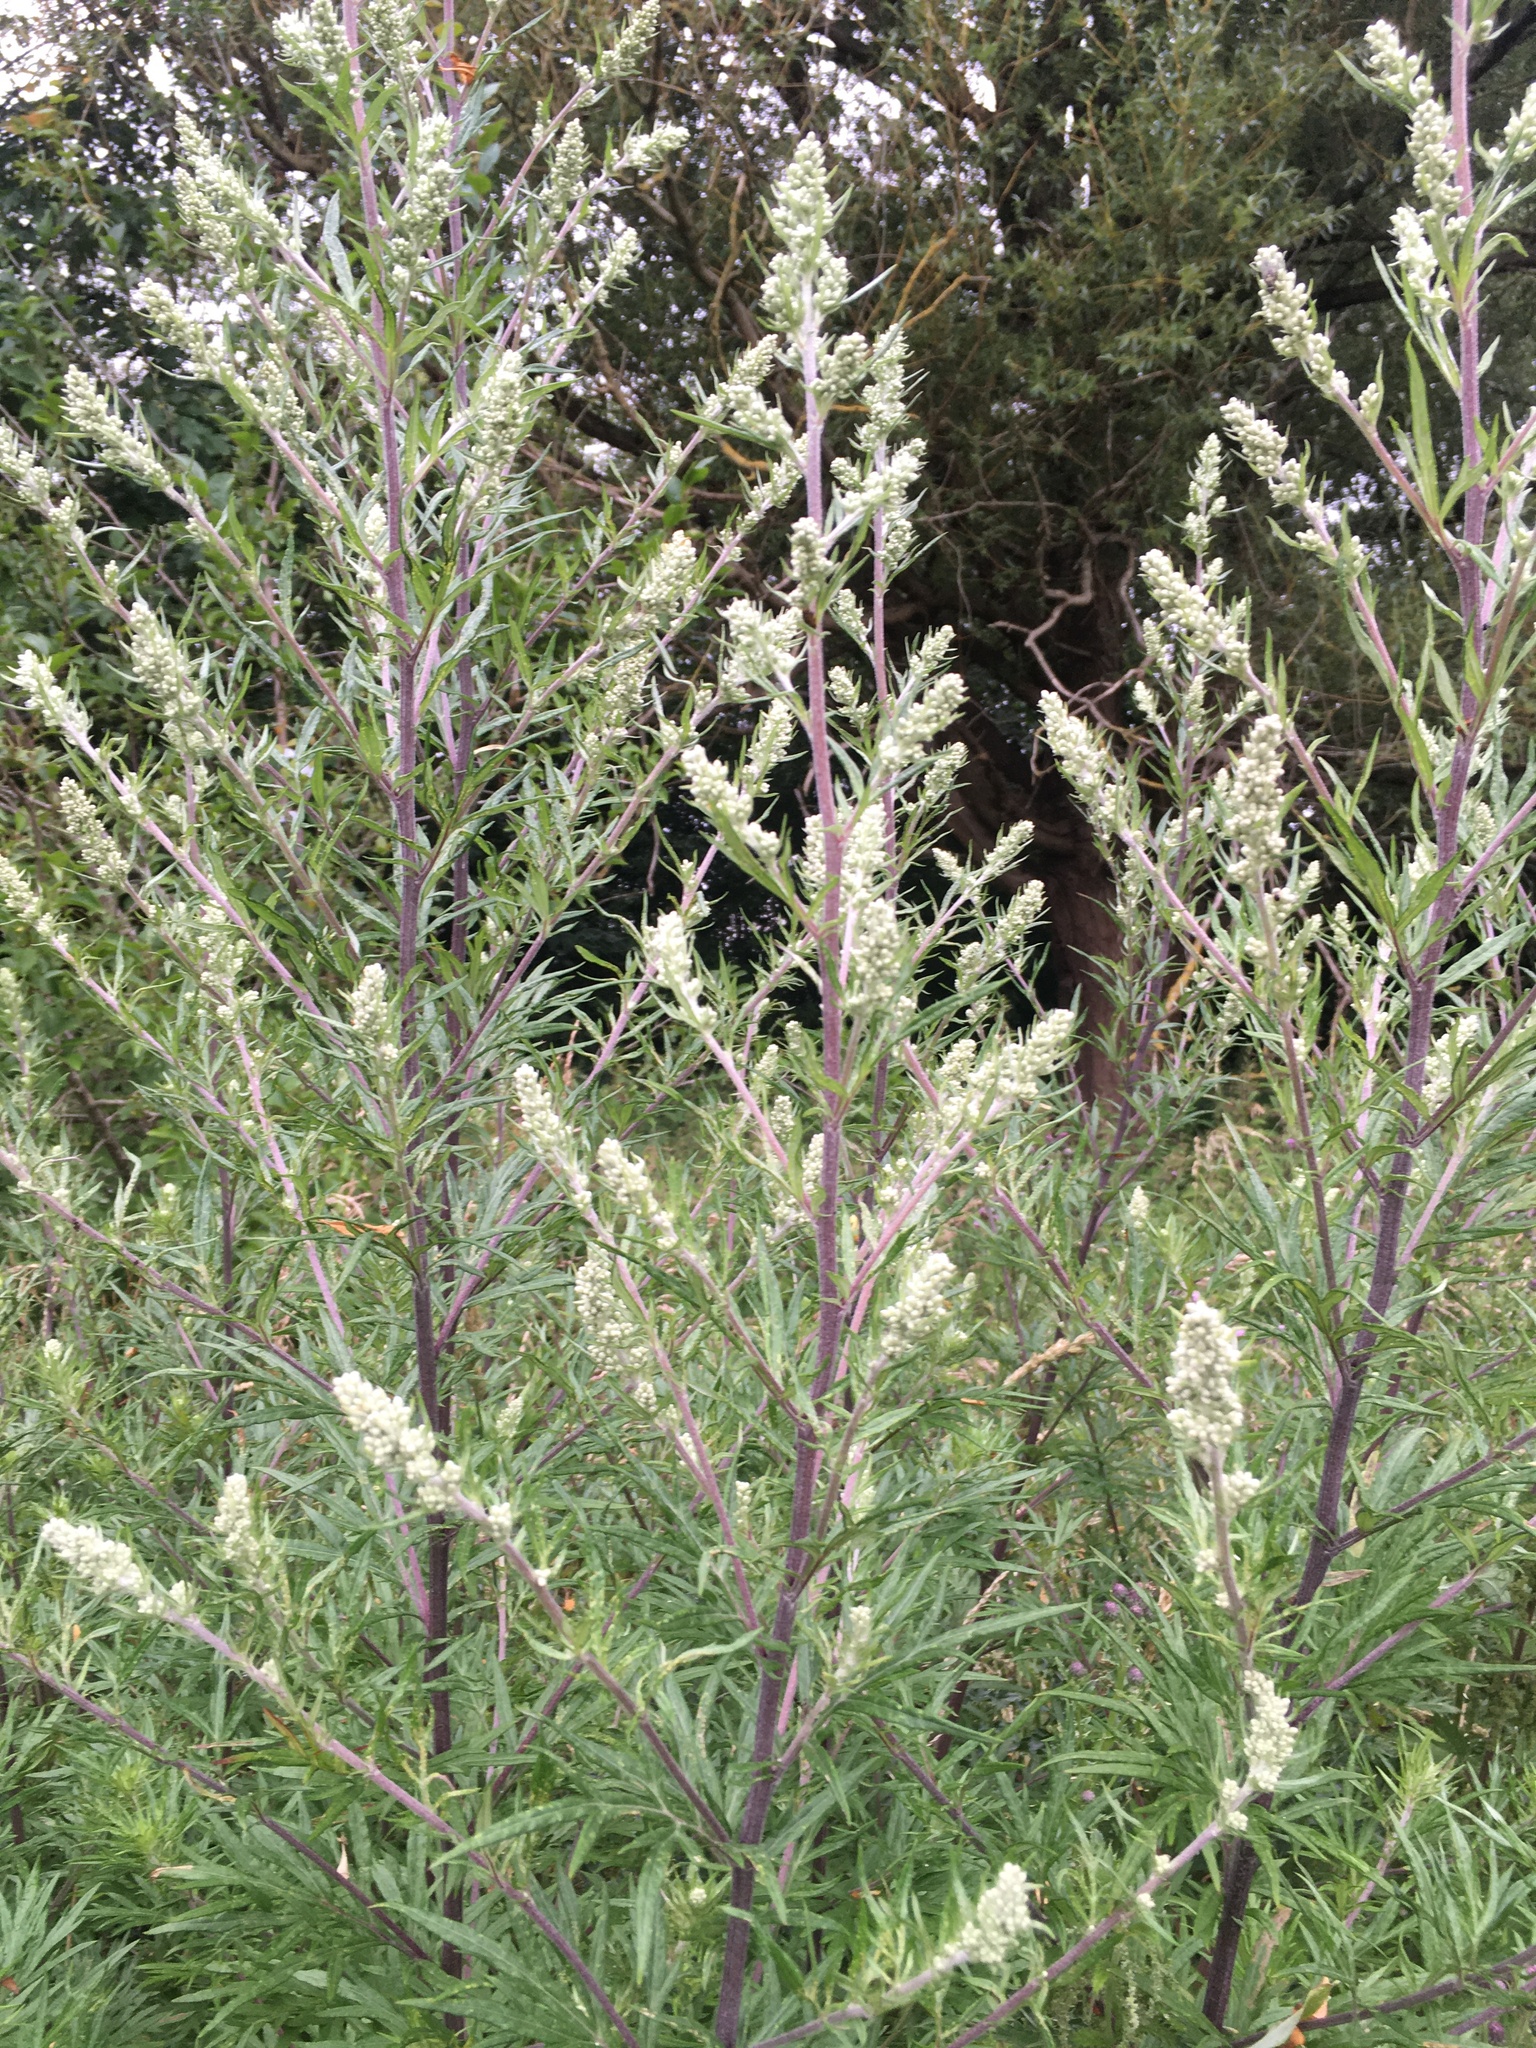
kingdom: Plantae
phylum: Tracheophyta
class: Magnoliopsida
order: Asterales
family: Asteraceae
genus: Artemisia
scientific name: Artemisia vulgaris
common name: Mugwort
